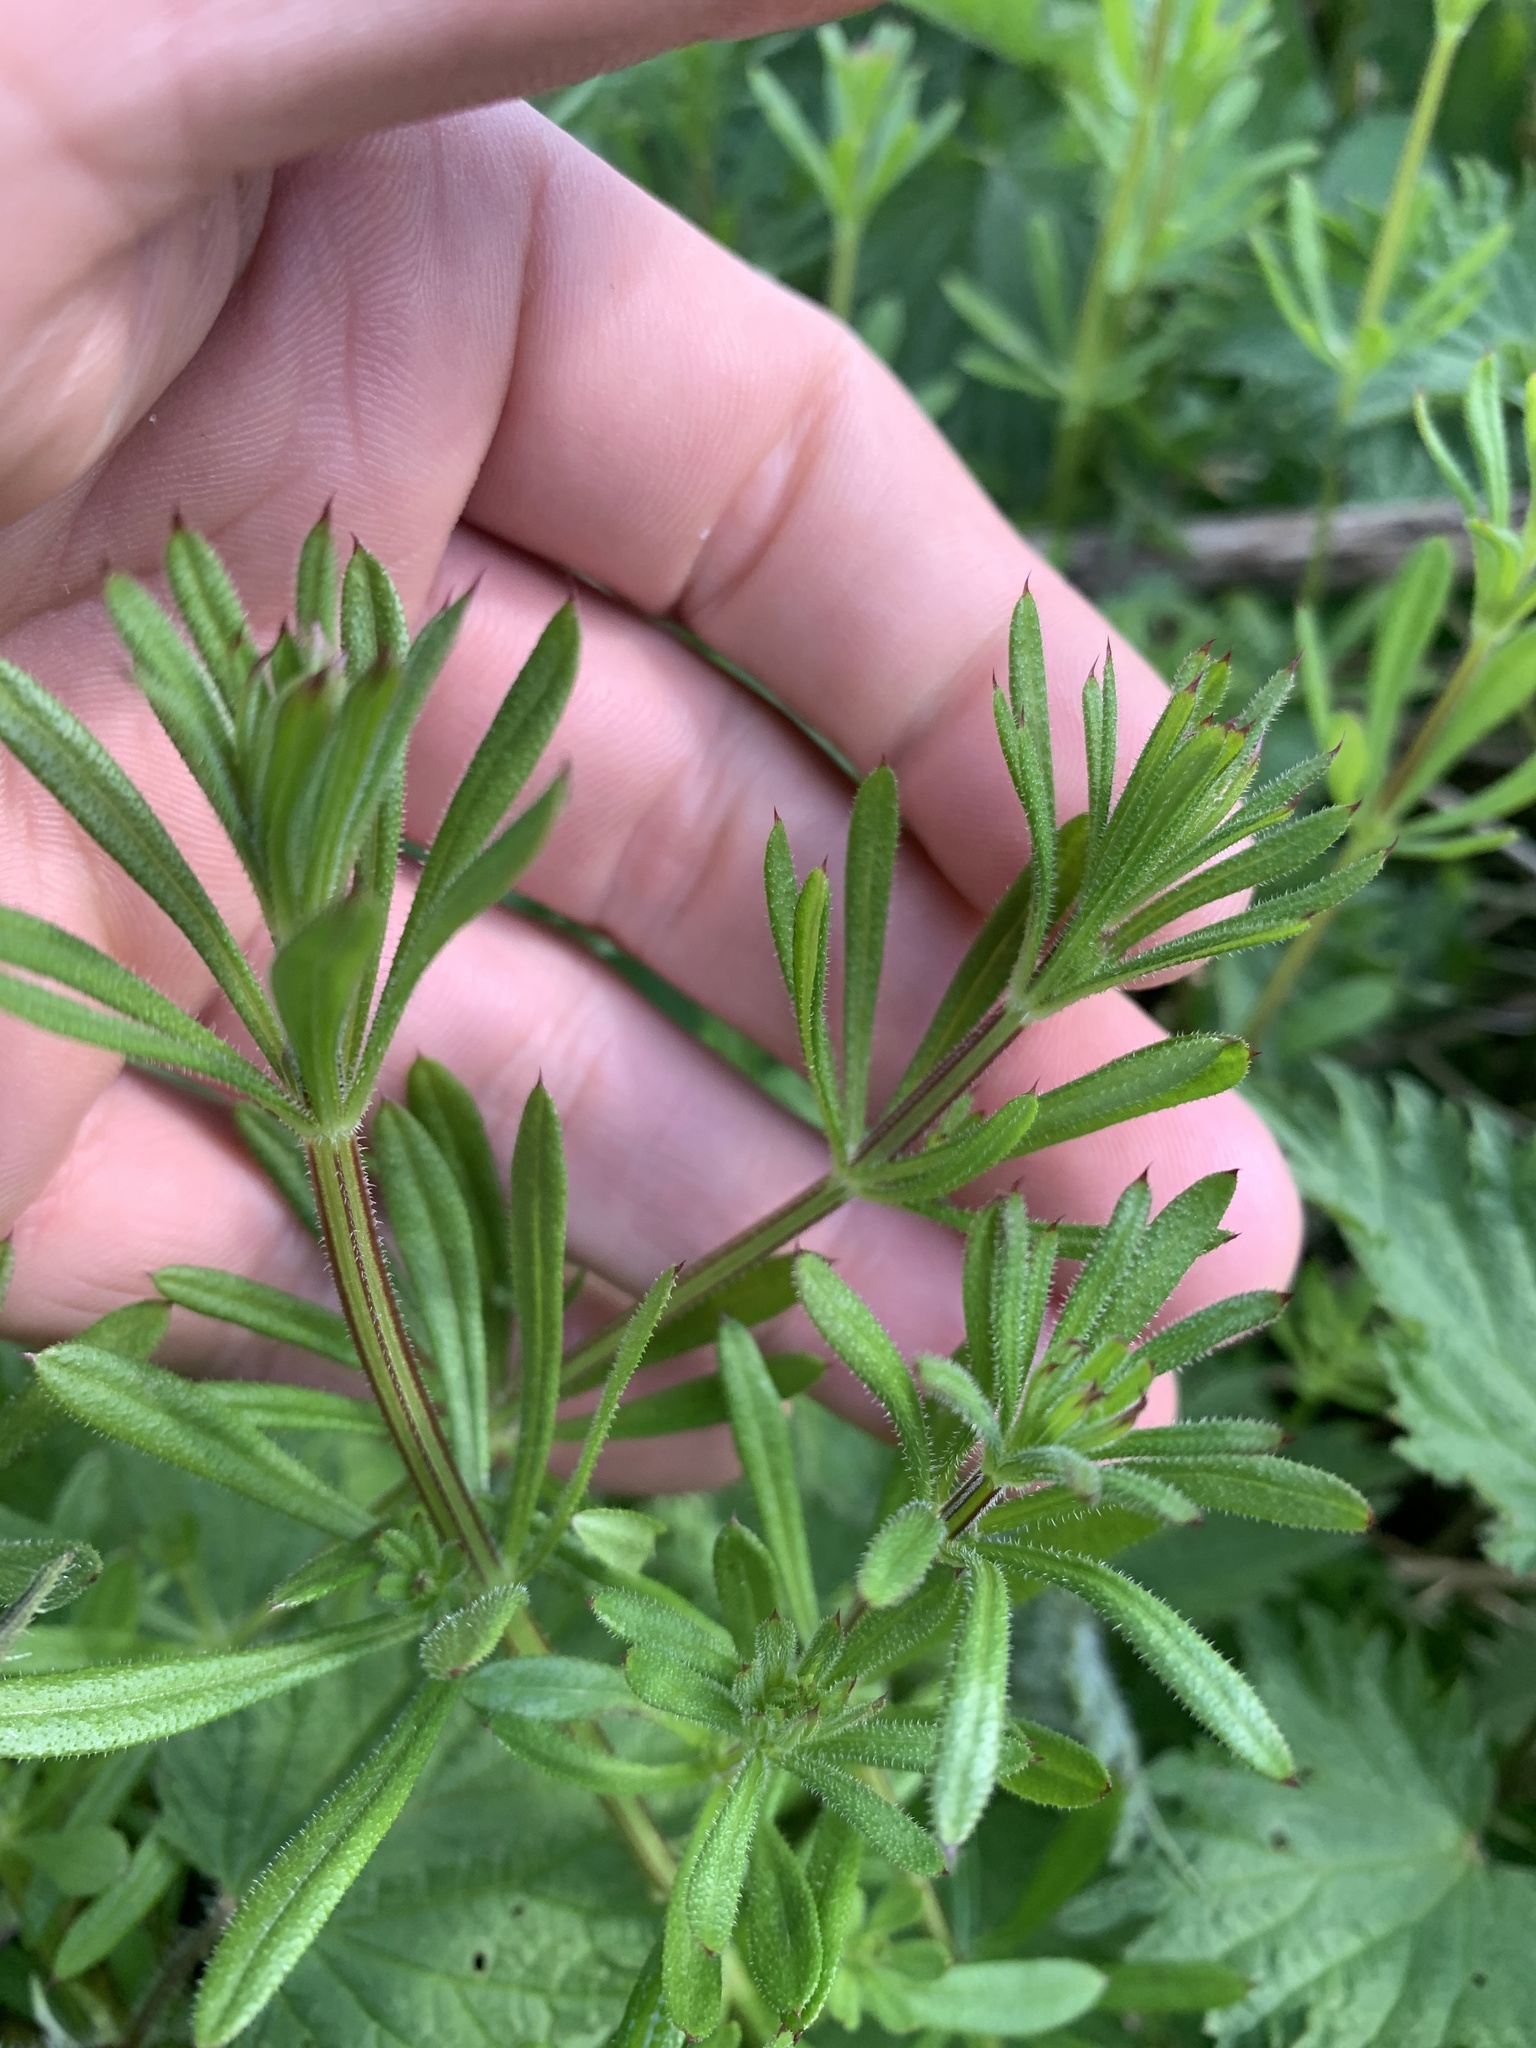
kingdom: Plantae
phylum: Tracheophyta
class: Magnoliopsida
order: Gentianales
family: Rubiaceae
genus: Galium
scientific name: Galium aparine
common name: Cleavers
